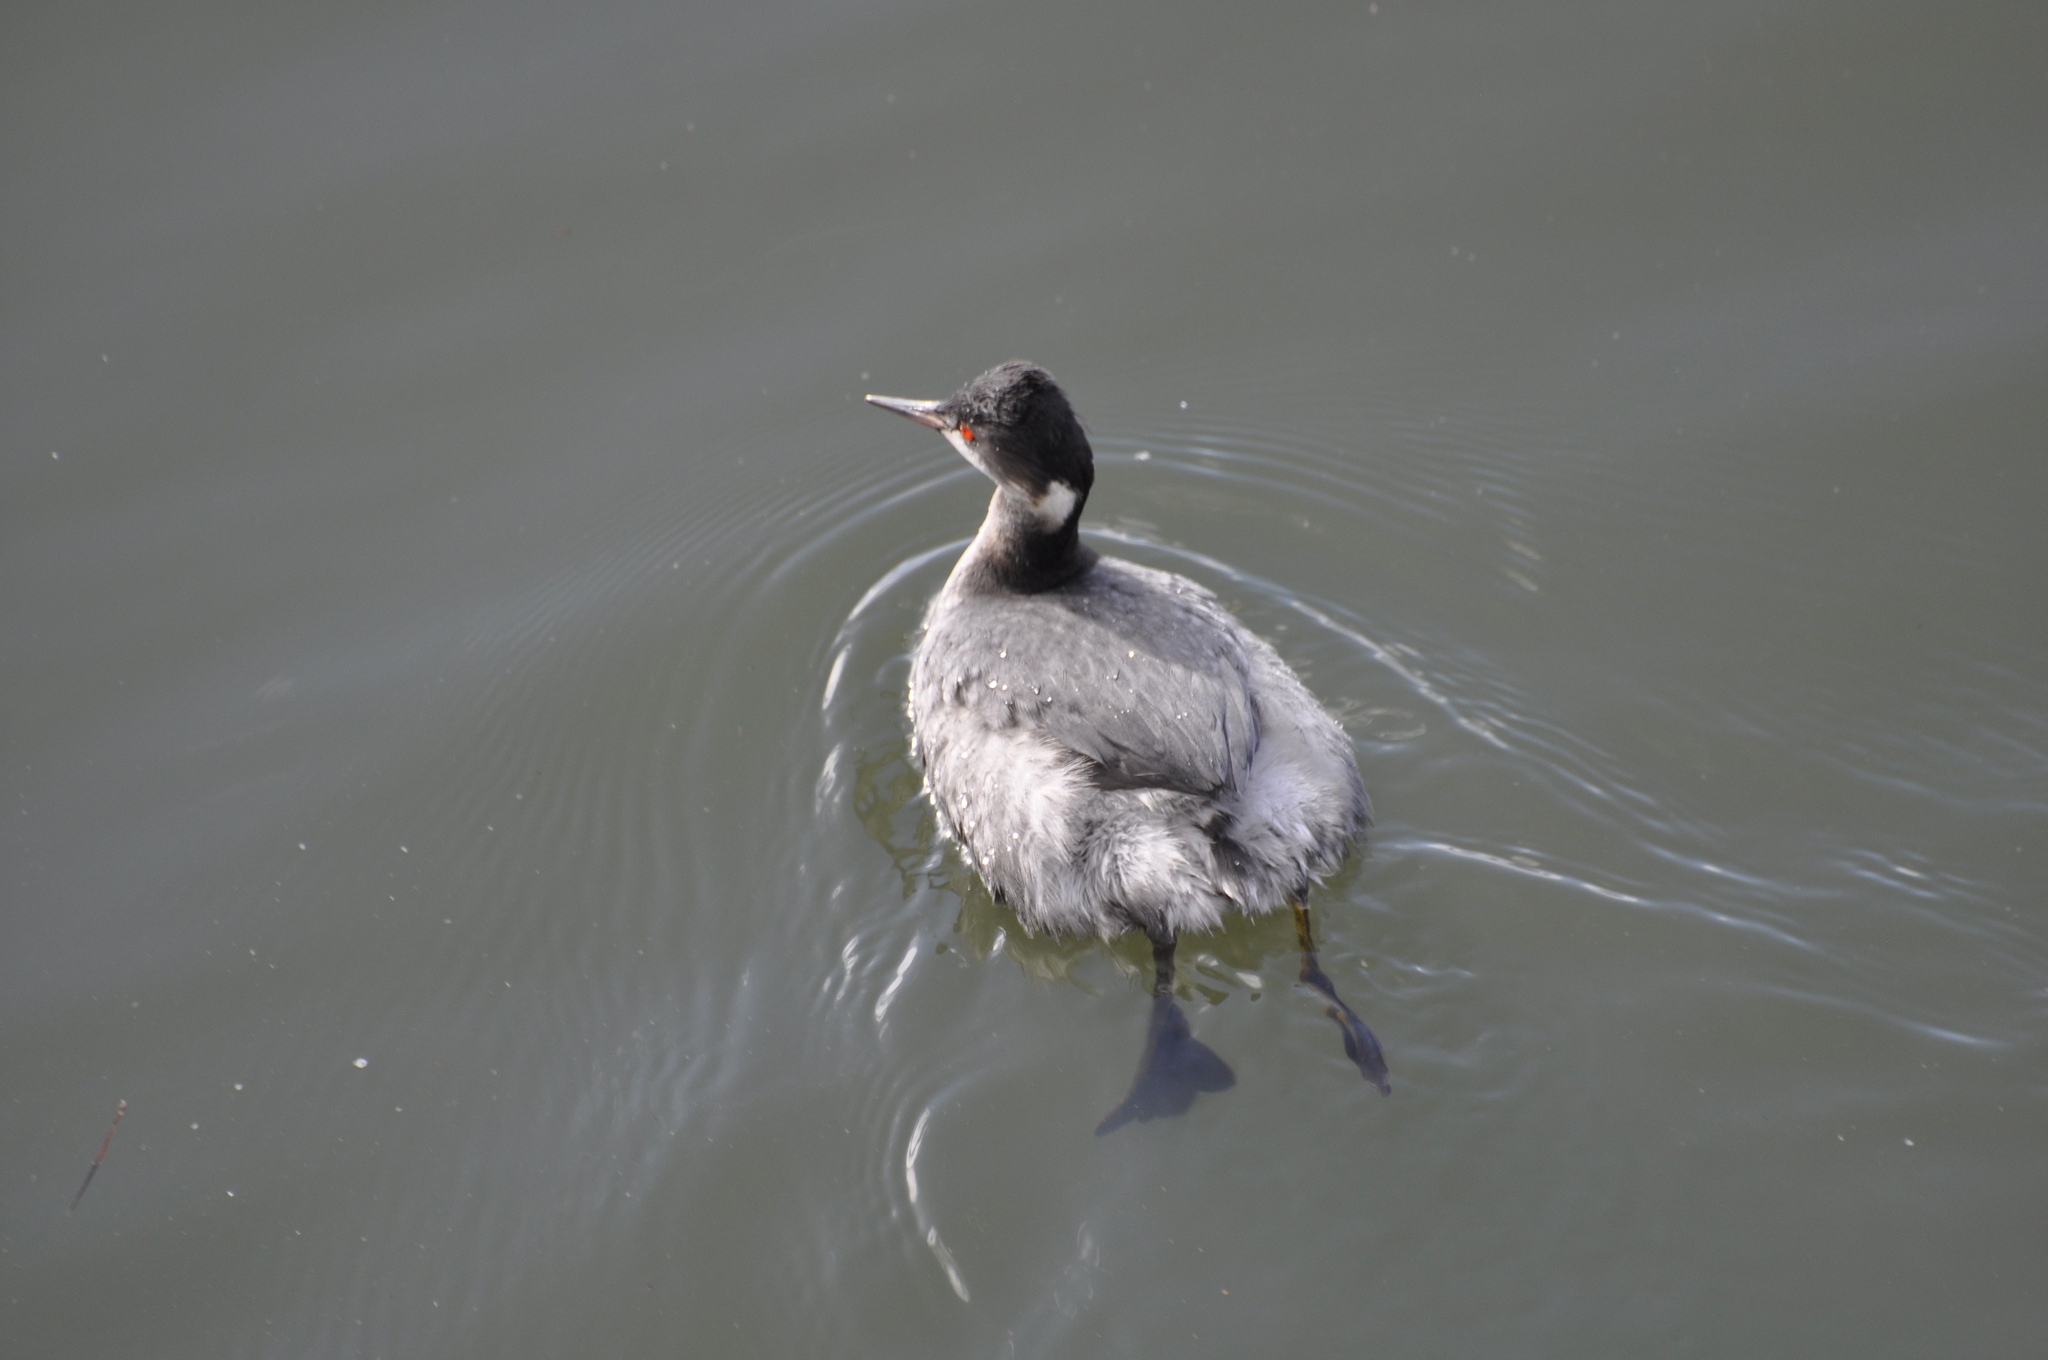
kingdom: Animalia
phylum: Chordata
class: Aves
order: Podicipediformes
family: Podicipedidae
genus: Podiceps
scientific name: Podiceps nigricollis
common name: Black-necked grebe
